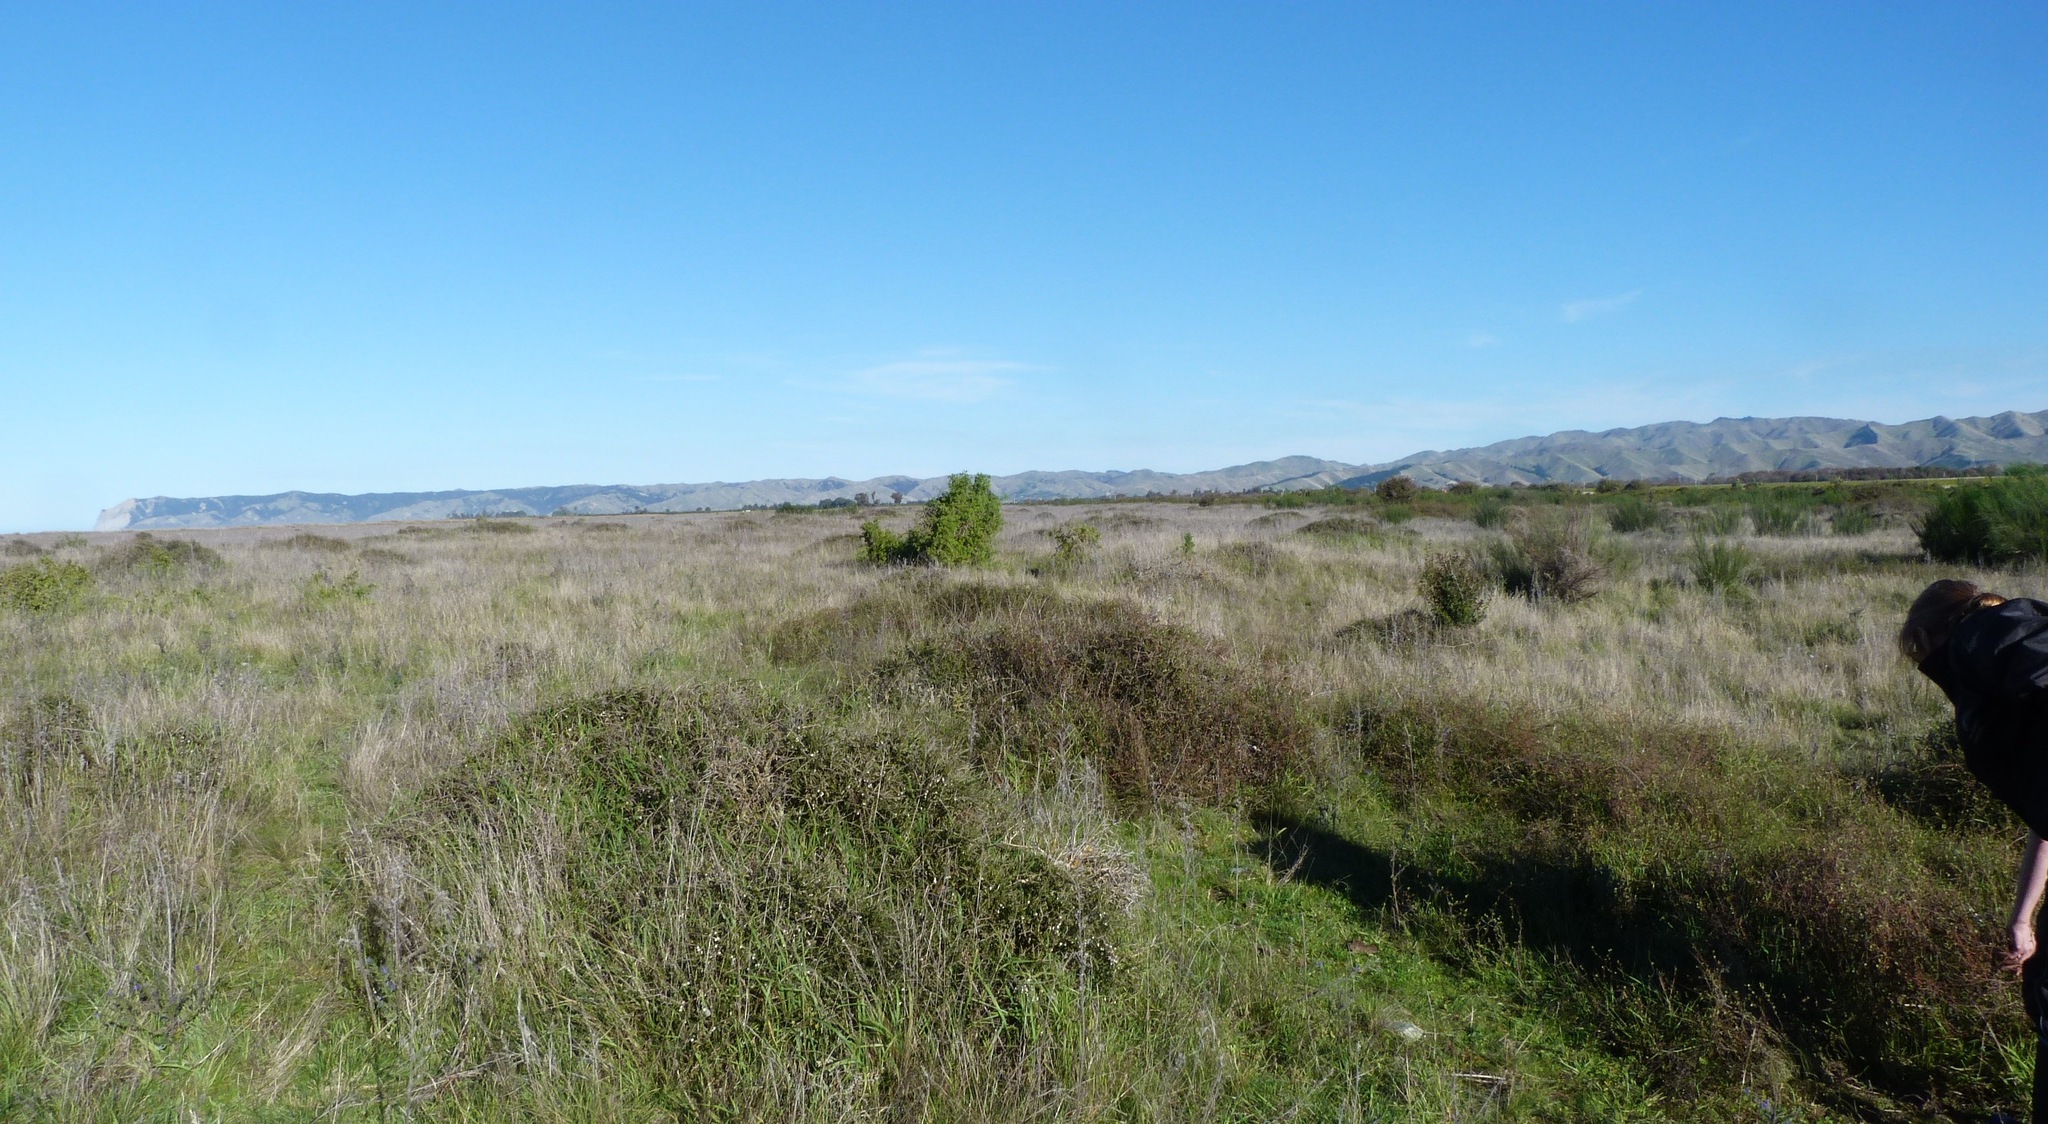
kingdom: Plantae
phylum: Tracheophyta
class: Magnoliopsida
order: Malpighiales
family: Violaceae
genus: Melicytus
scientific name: Melicytus alpinus
